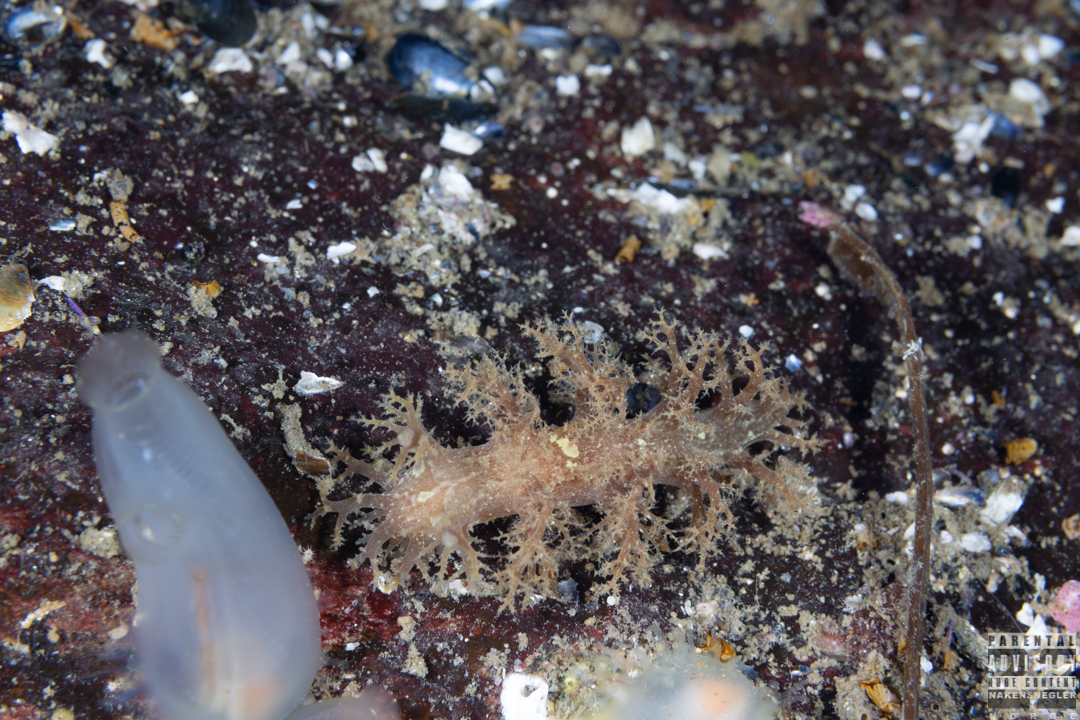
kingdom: Animalia
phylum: Mollusca
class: Gastropoda
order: Nudibranchia
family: Dendronotidae
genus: Dendronotus
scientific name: Dendronotus europaeus
